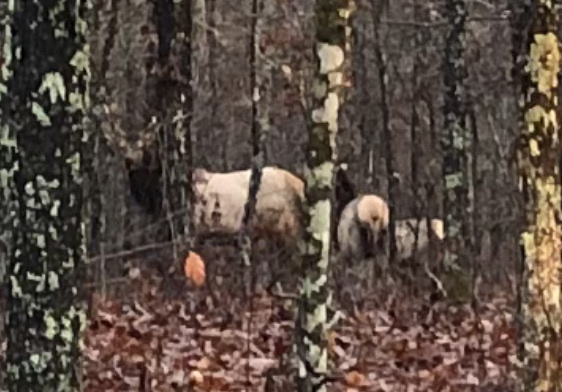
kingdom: Animalia
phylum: Chordata
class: Mammalia
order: Artiodactyla
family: Cervidae
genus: Cervus
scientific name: Cervus elaphus
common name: Red deer
